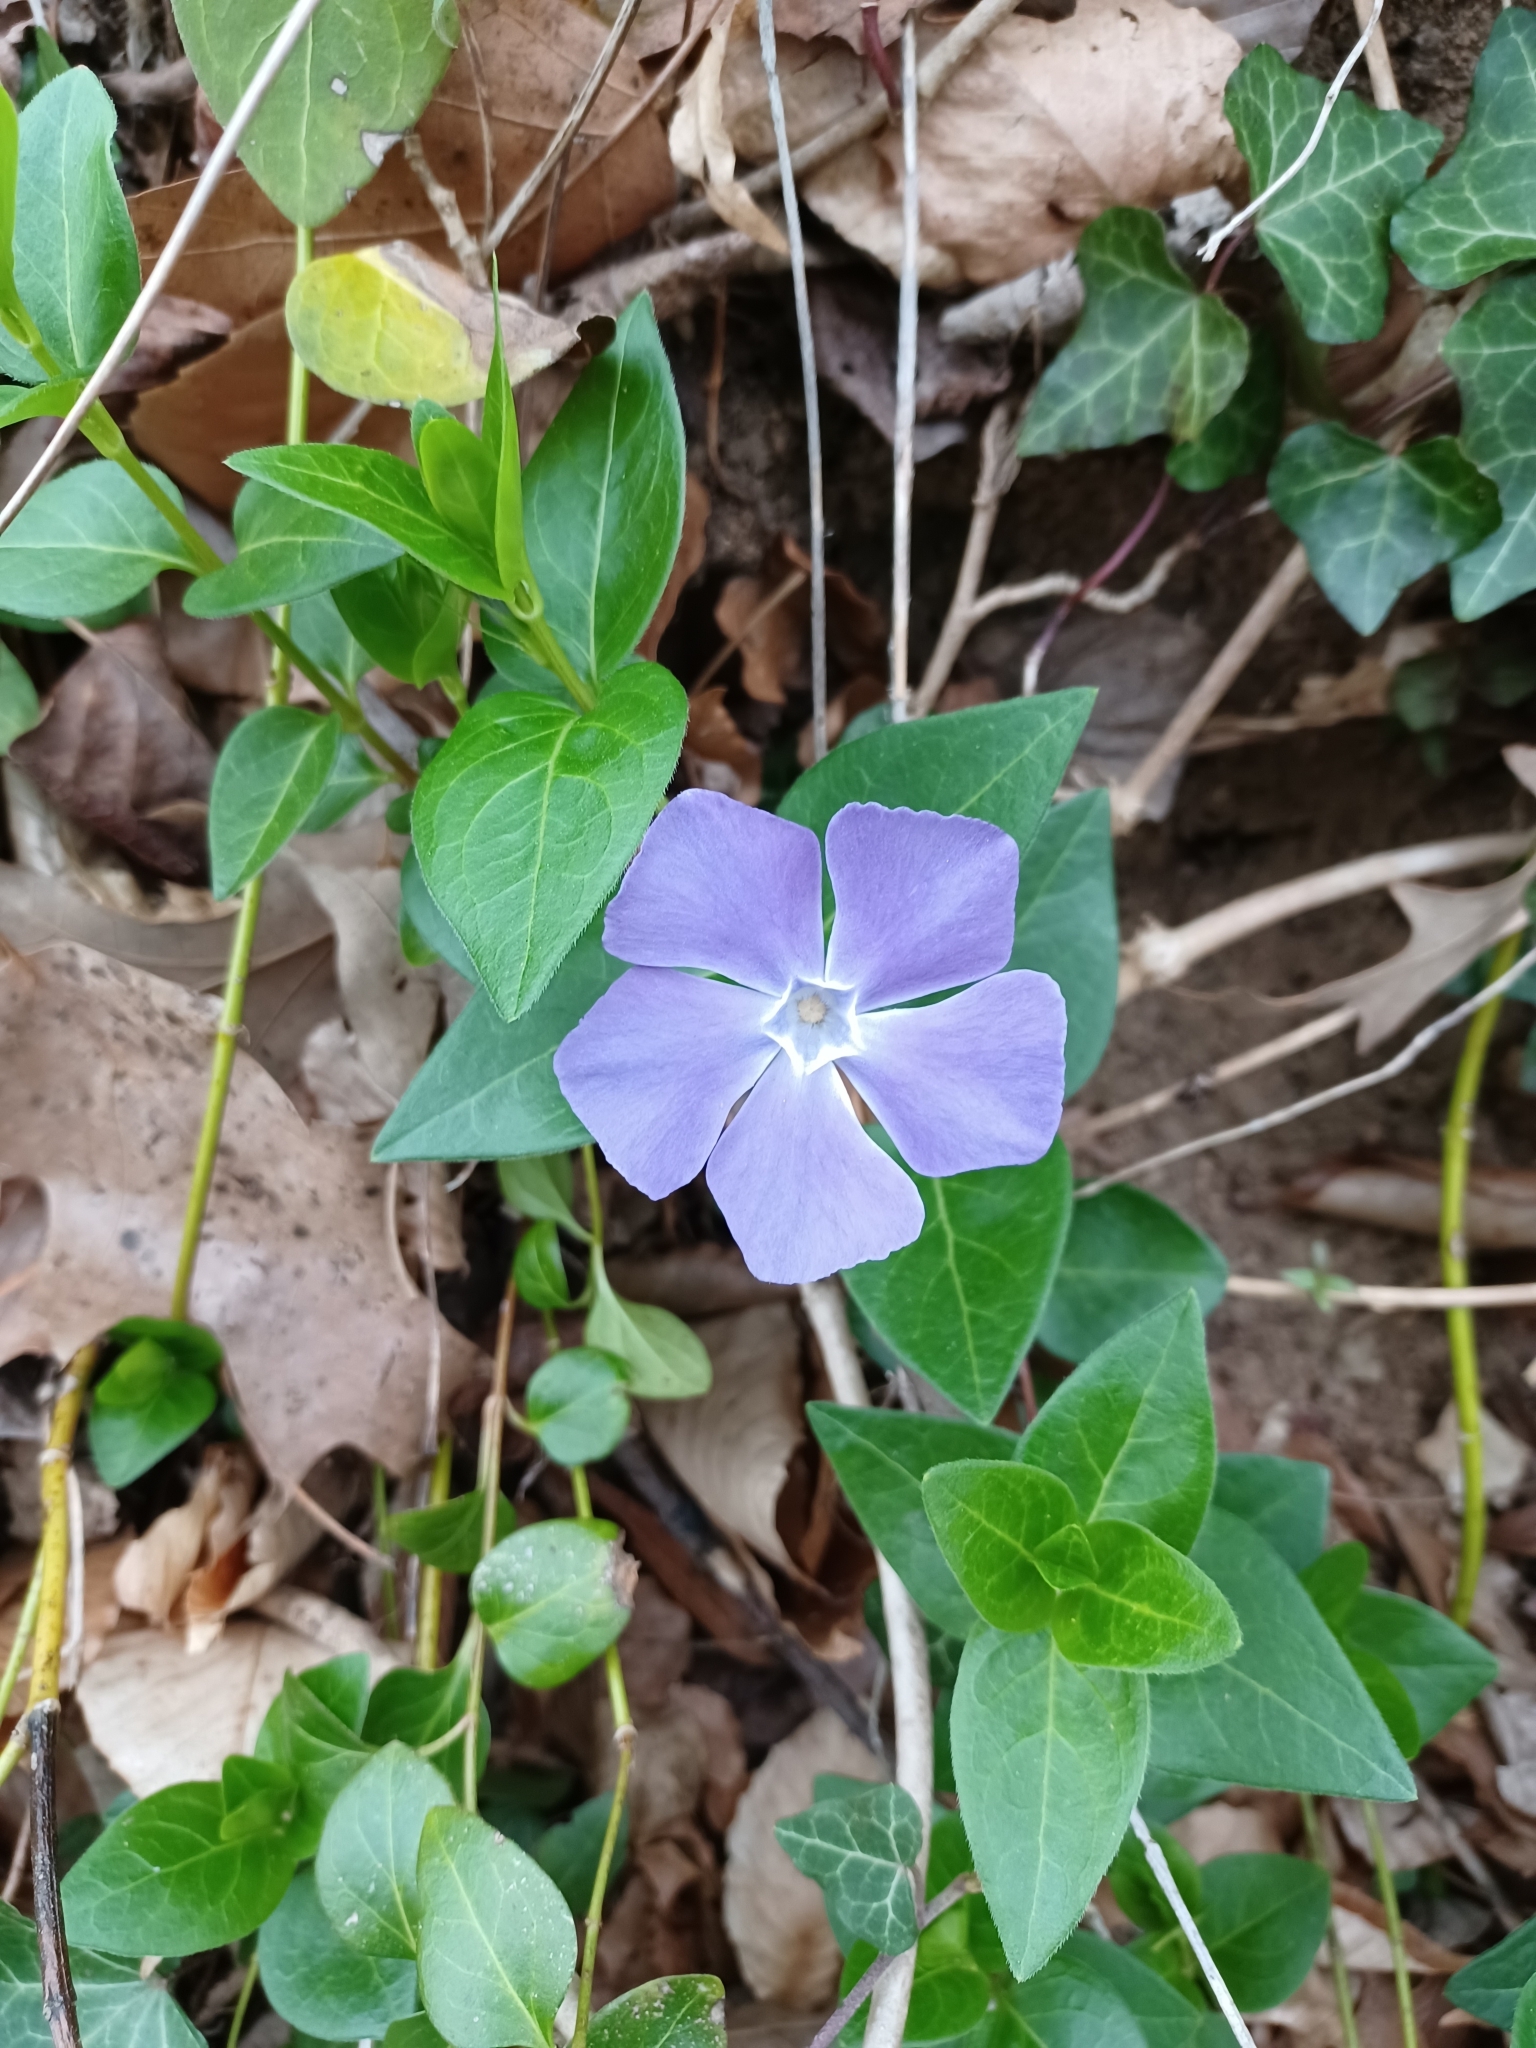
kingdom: Plantae
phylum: Tracheophyta
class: Magnoliopsida
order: Gentianales
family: Apocynaceae
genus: Vinca
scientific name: Vinca major
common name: Greater periwinkle
